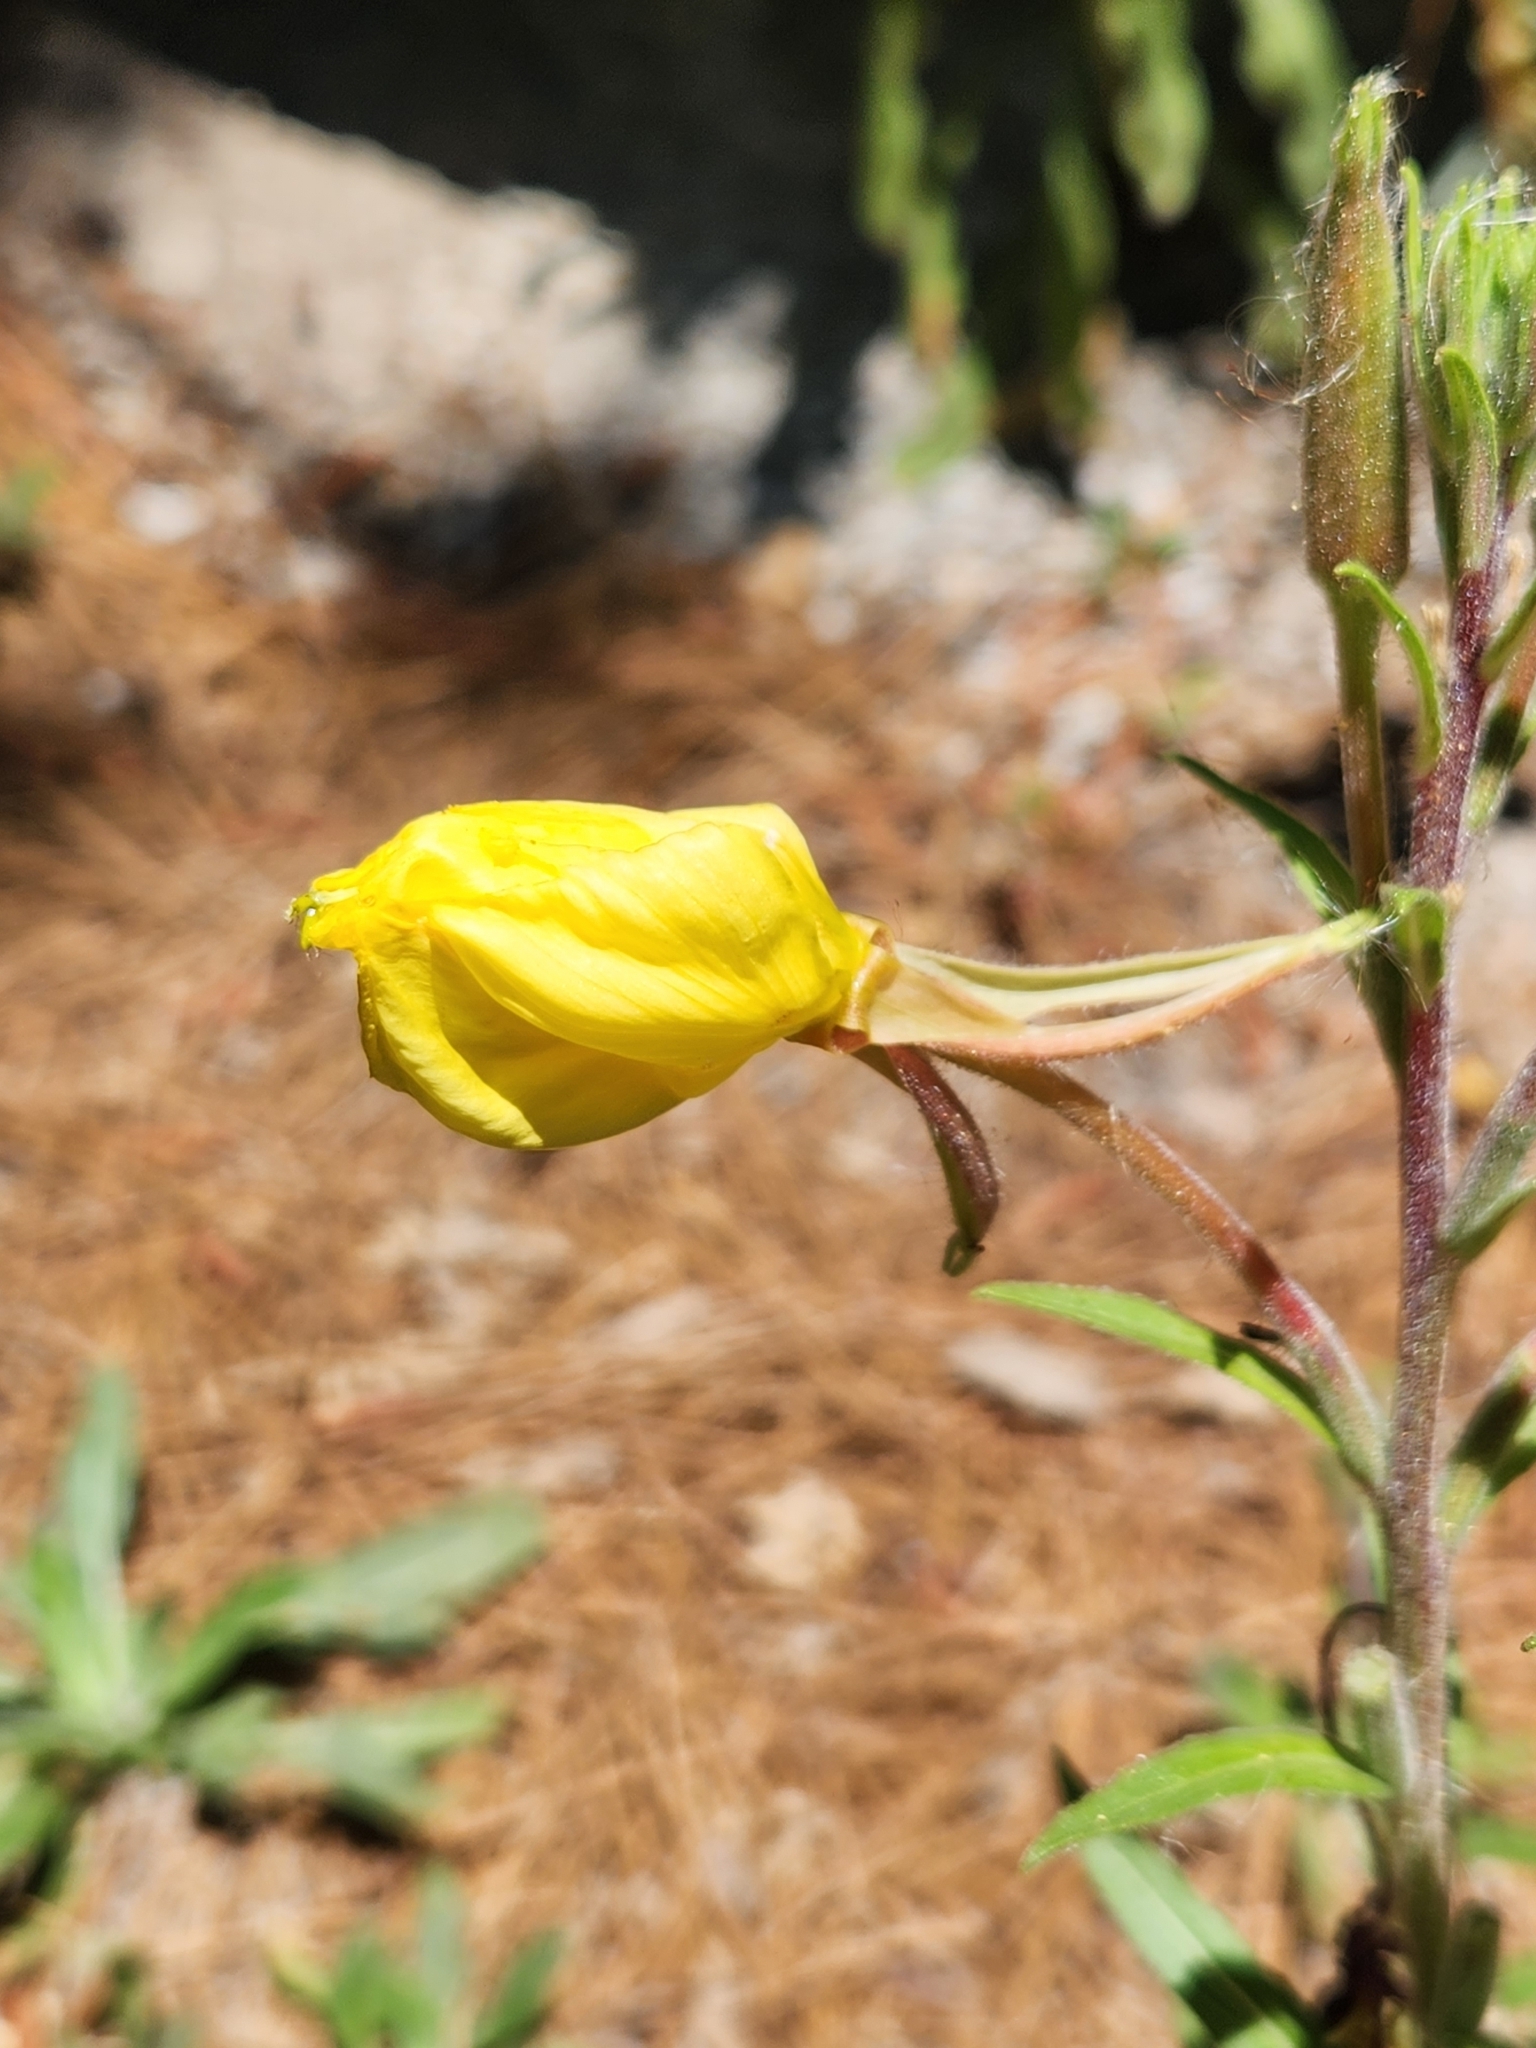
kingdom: Plantae
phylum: Tracheophyta
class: Magnoliopsida
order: Myrtales
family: Onagraceae
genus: Oenothera
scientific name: Oenothera elata
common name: Hooker's evening-primrose
